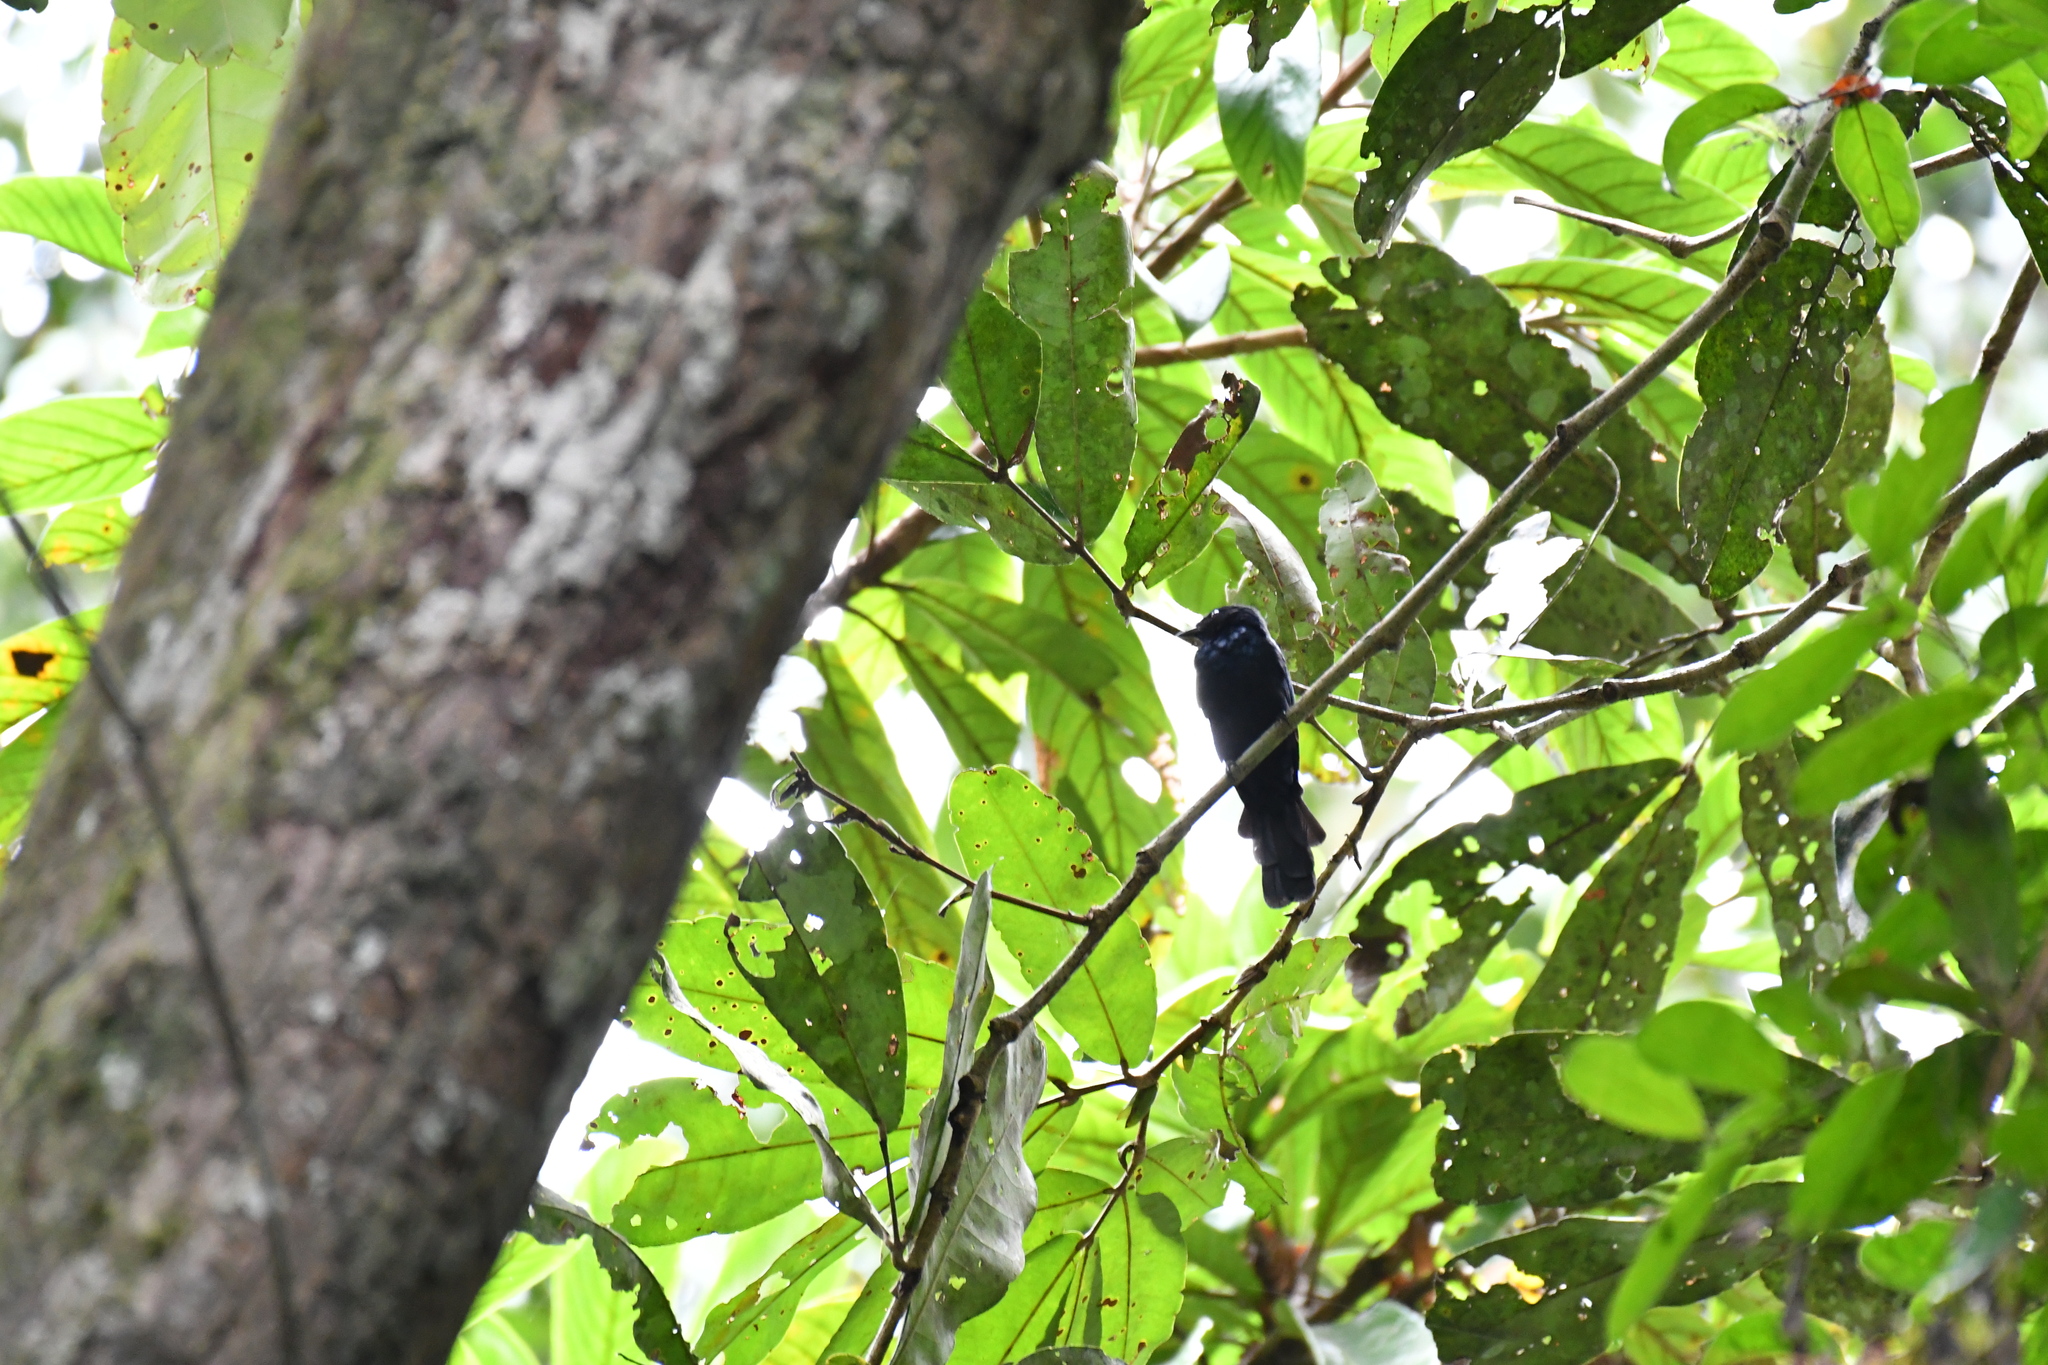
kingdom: Animalia
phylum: Chordata
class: Aves
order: Passeriformes
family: Muscicapidae
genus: Melaenornis
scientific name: Melaenornis annamarulae
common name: Nimba flycatcher
